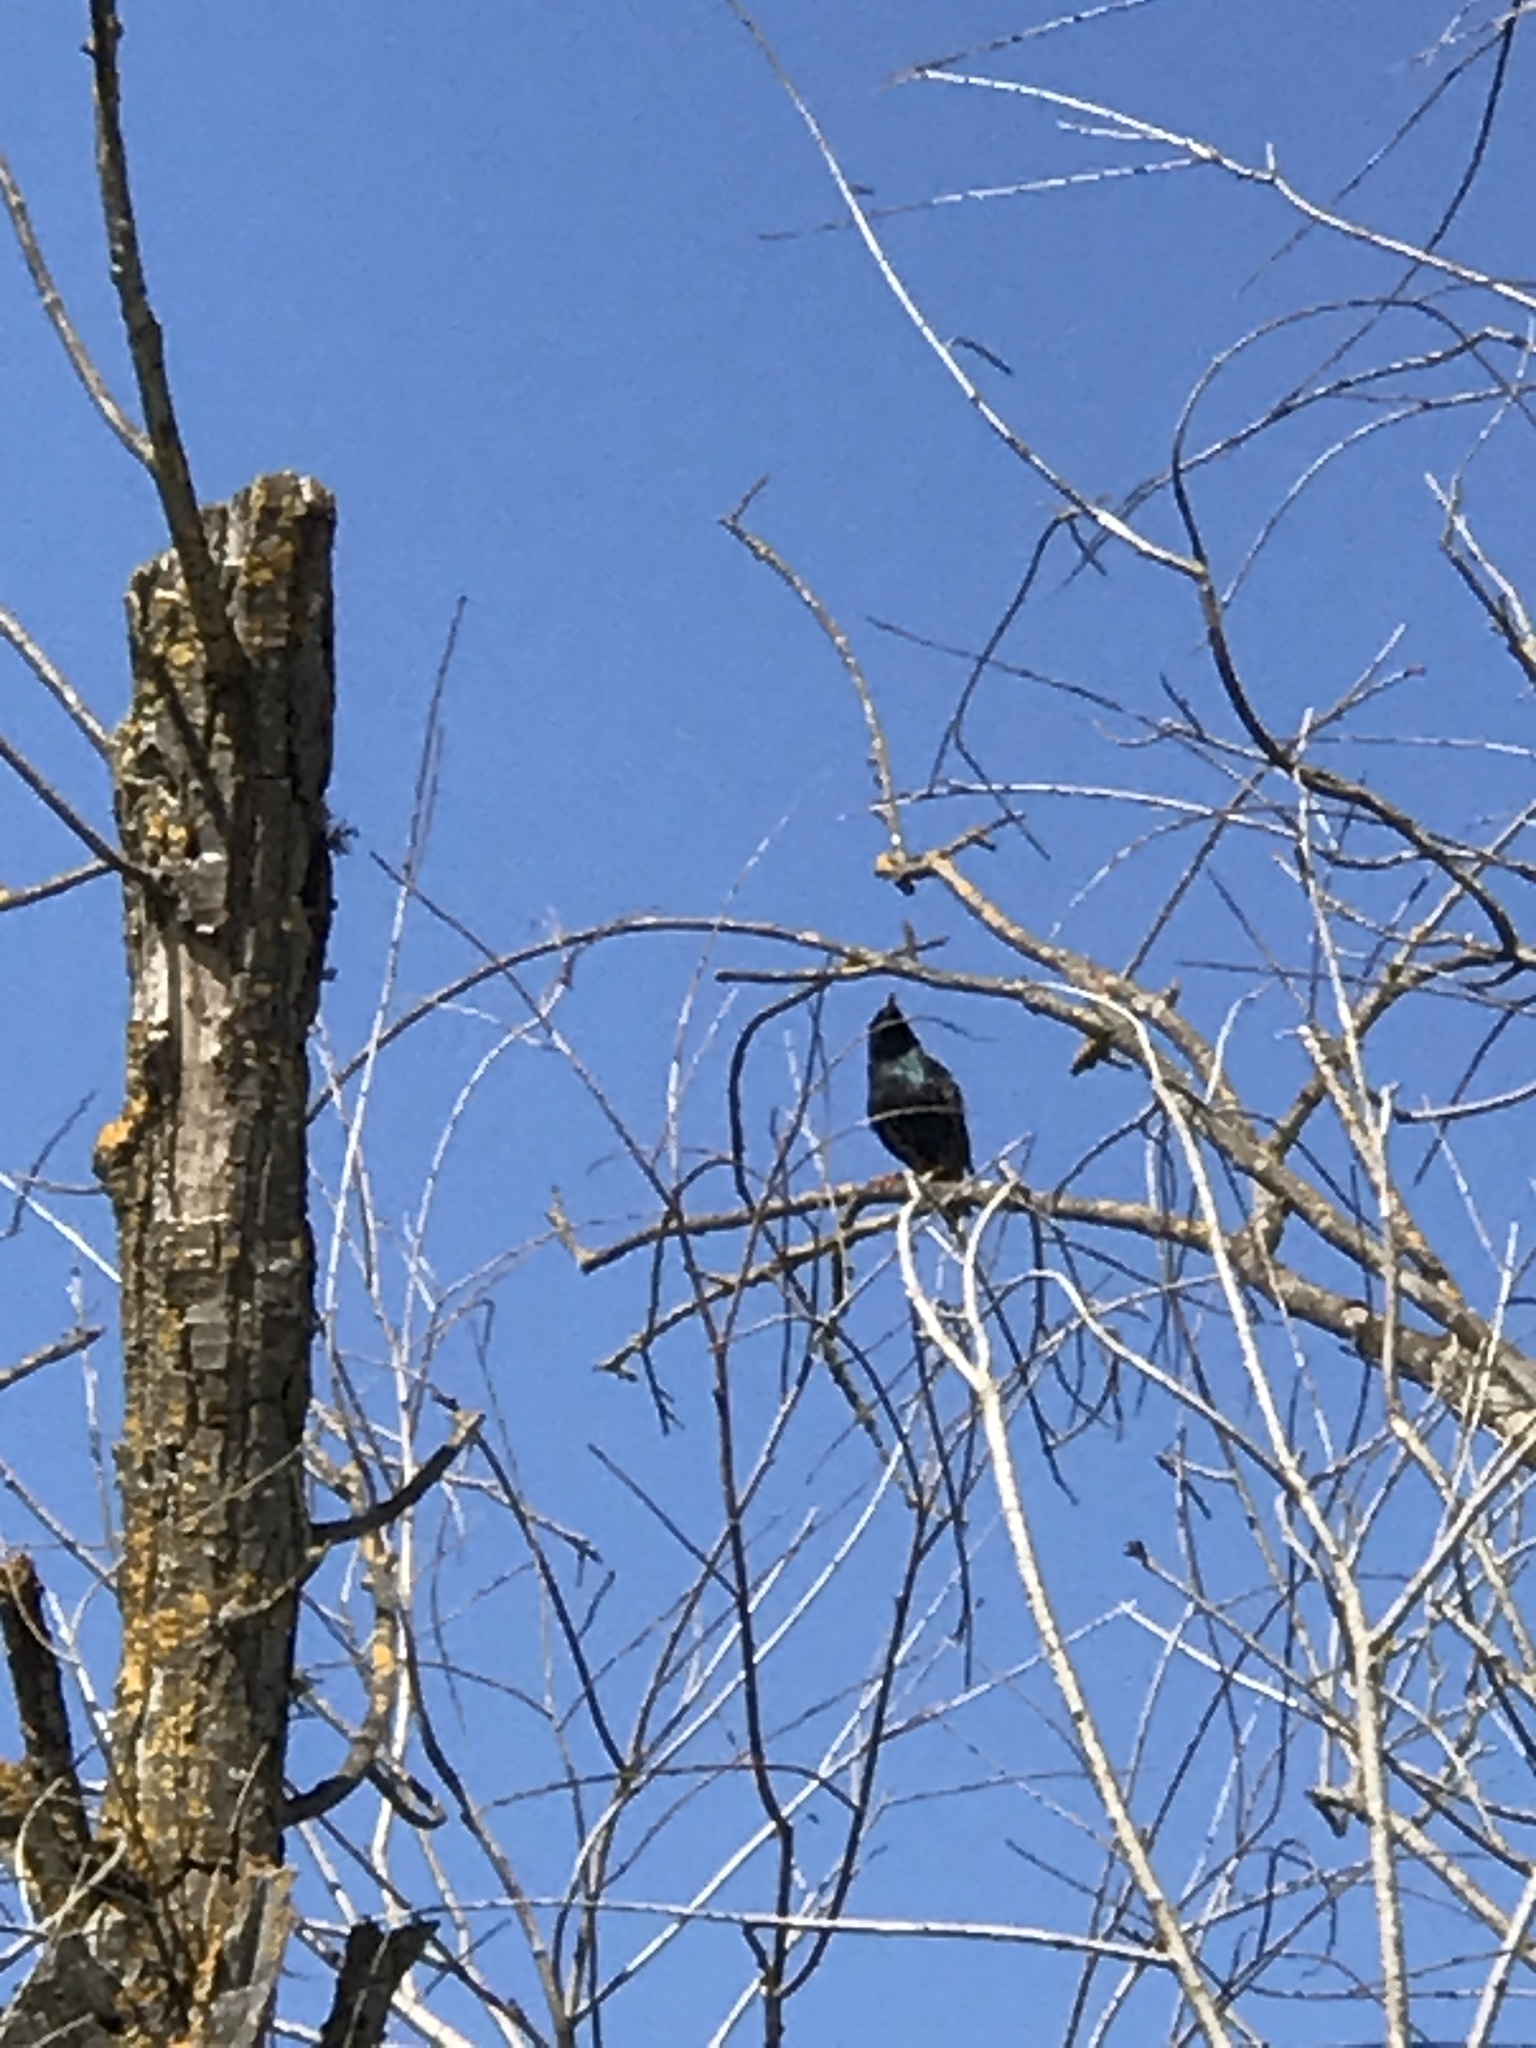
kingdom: Animalia
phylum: Chordata
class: Aves
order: Passeriformes
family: Sturnidae
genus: Sturnus
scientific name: Sturnus vulgaris
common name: Common starling
